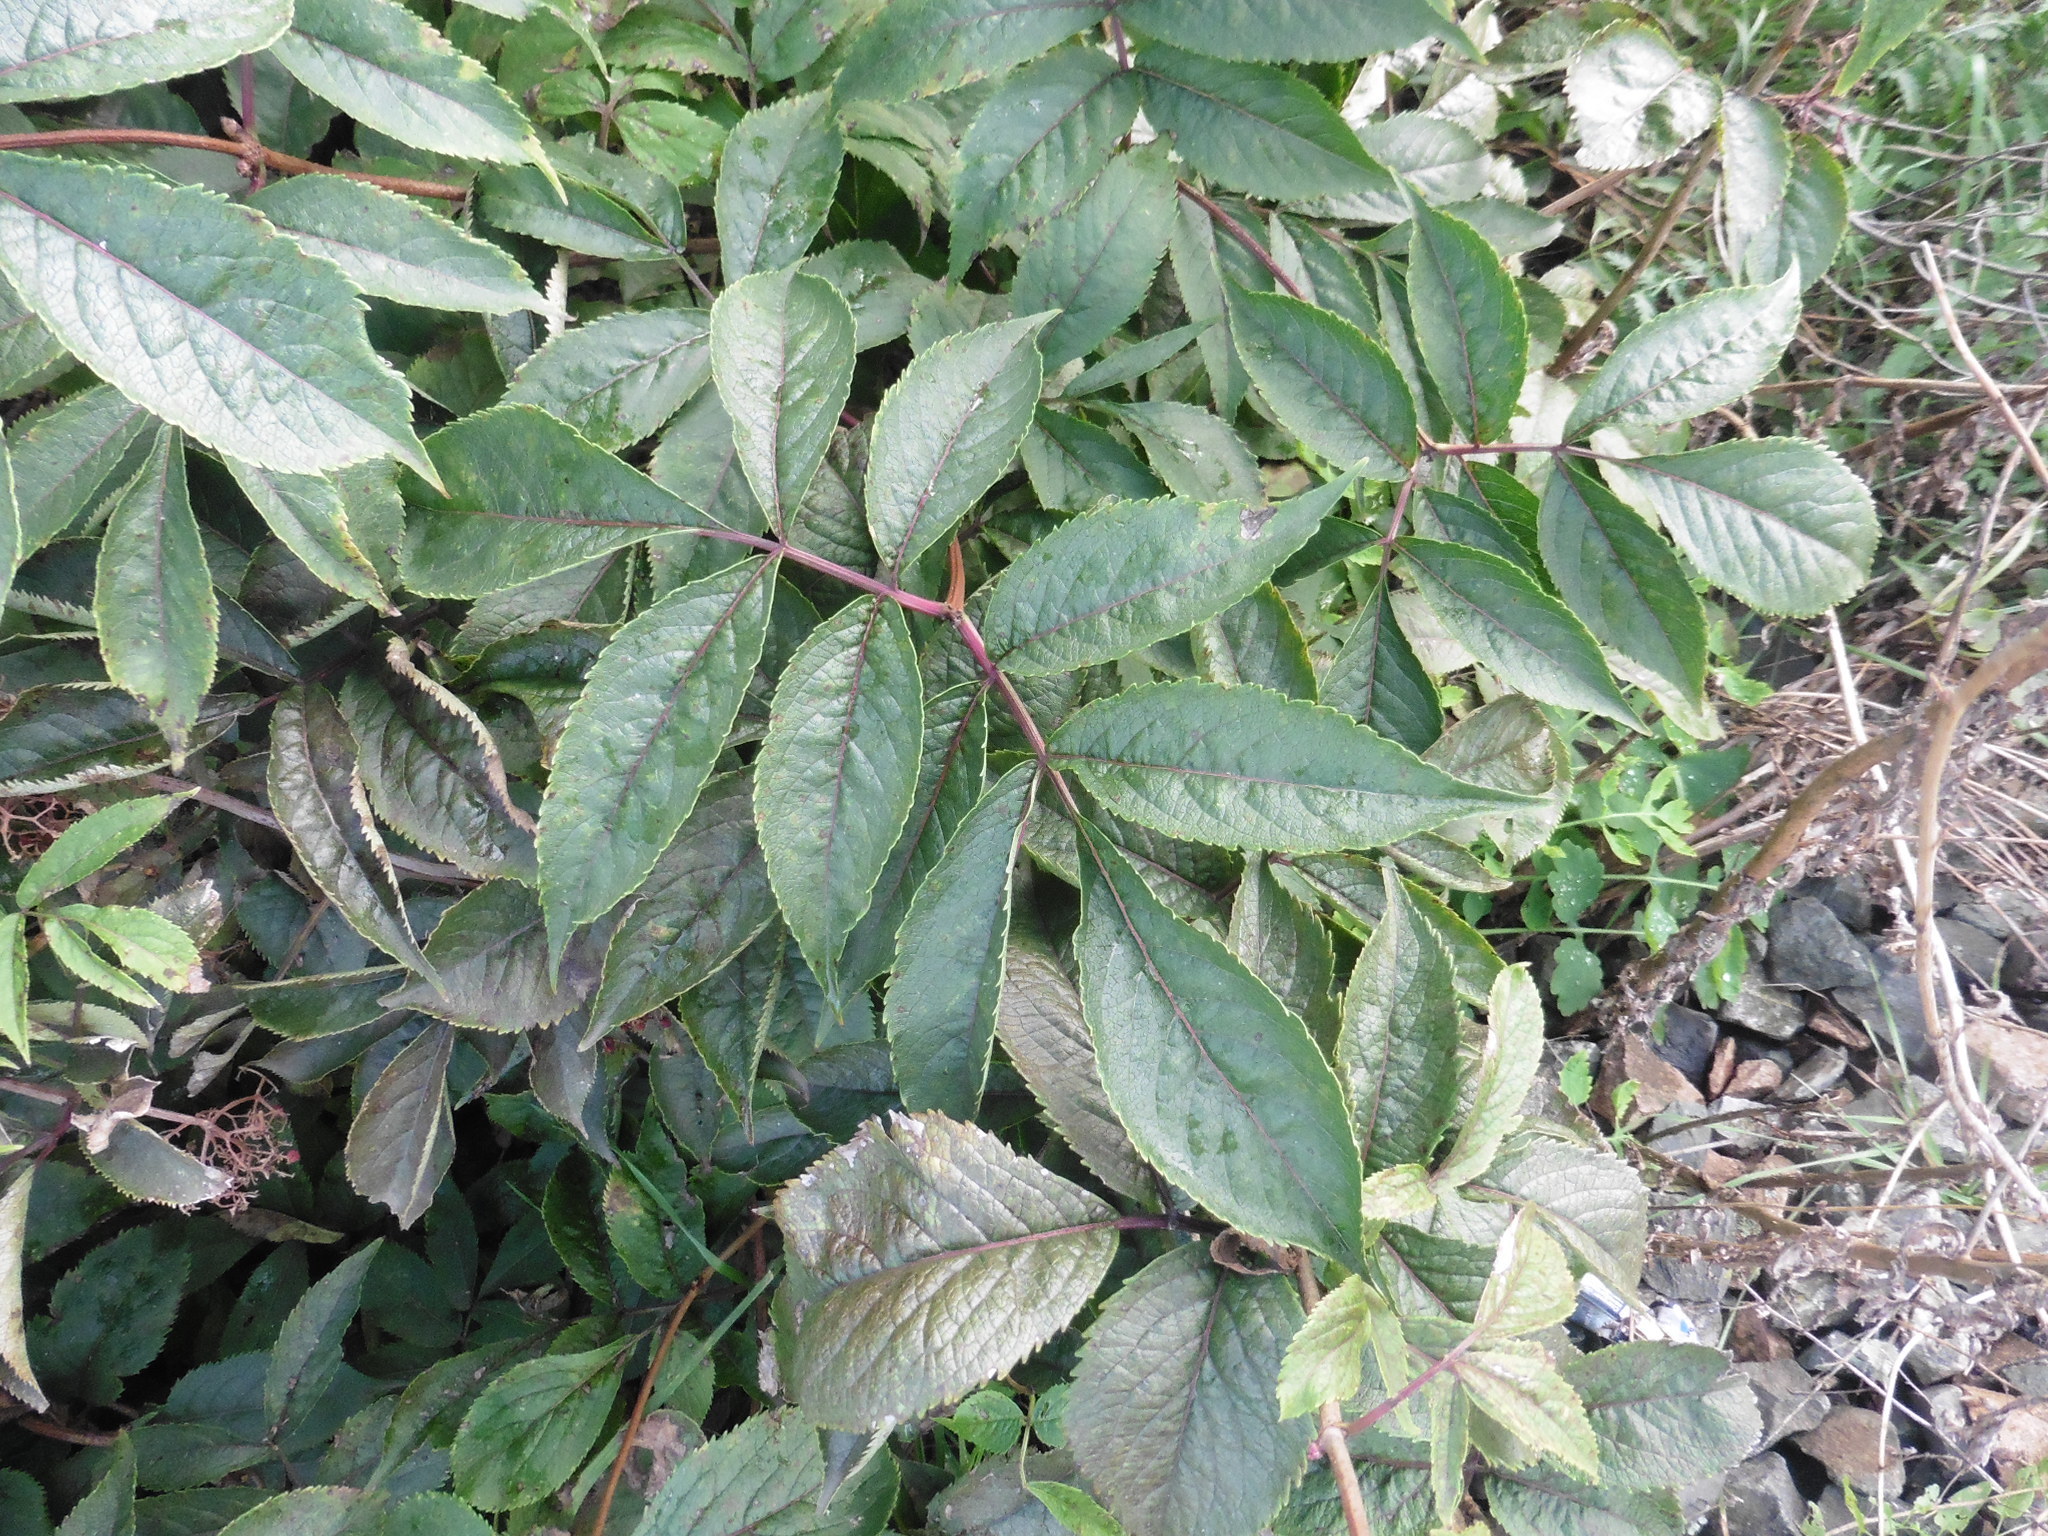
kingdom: Plantae
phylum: Tracheophyta
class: Magnoliopsida
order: Dipsacales
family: Viburnaceae
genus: Sambucus
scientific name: Sambucus racemosa
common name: Red-berried elder
